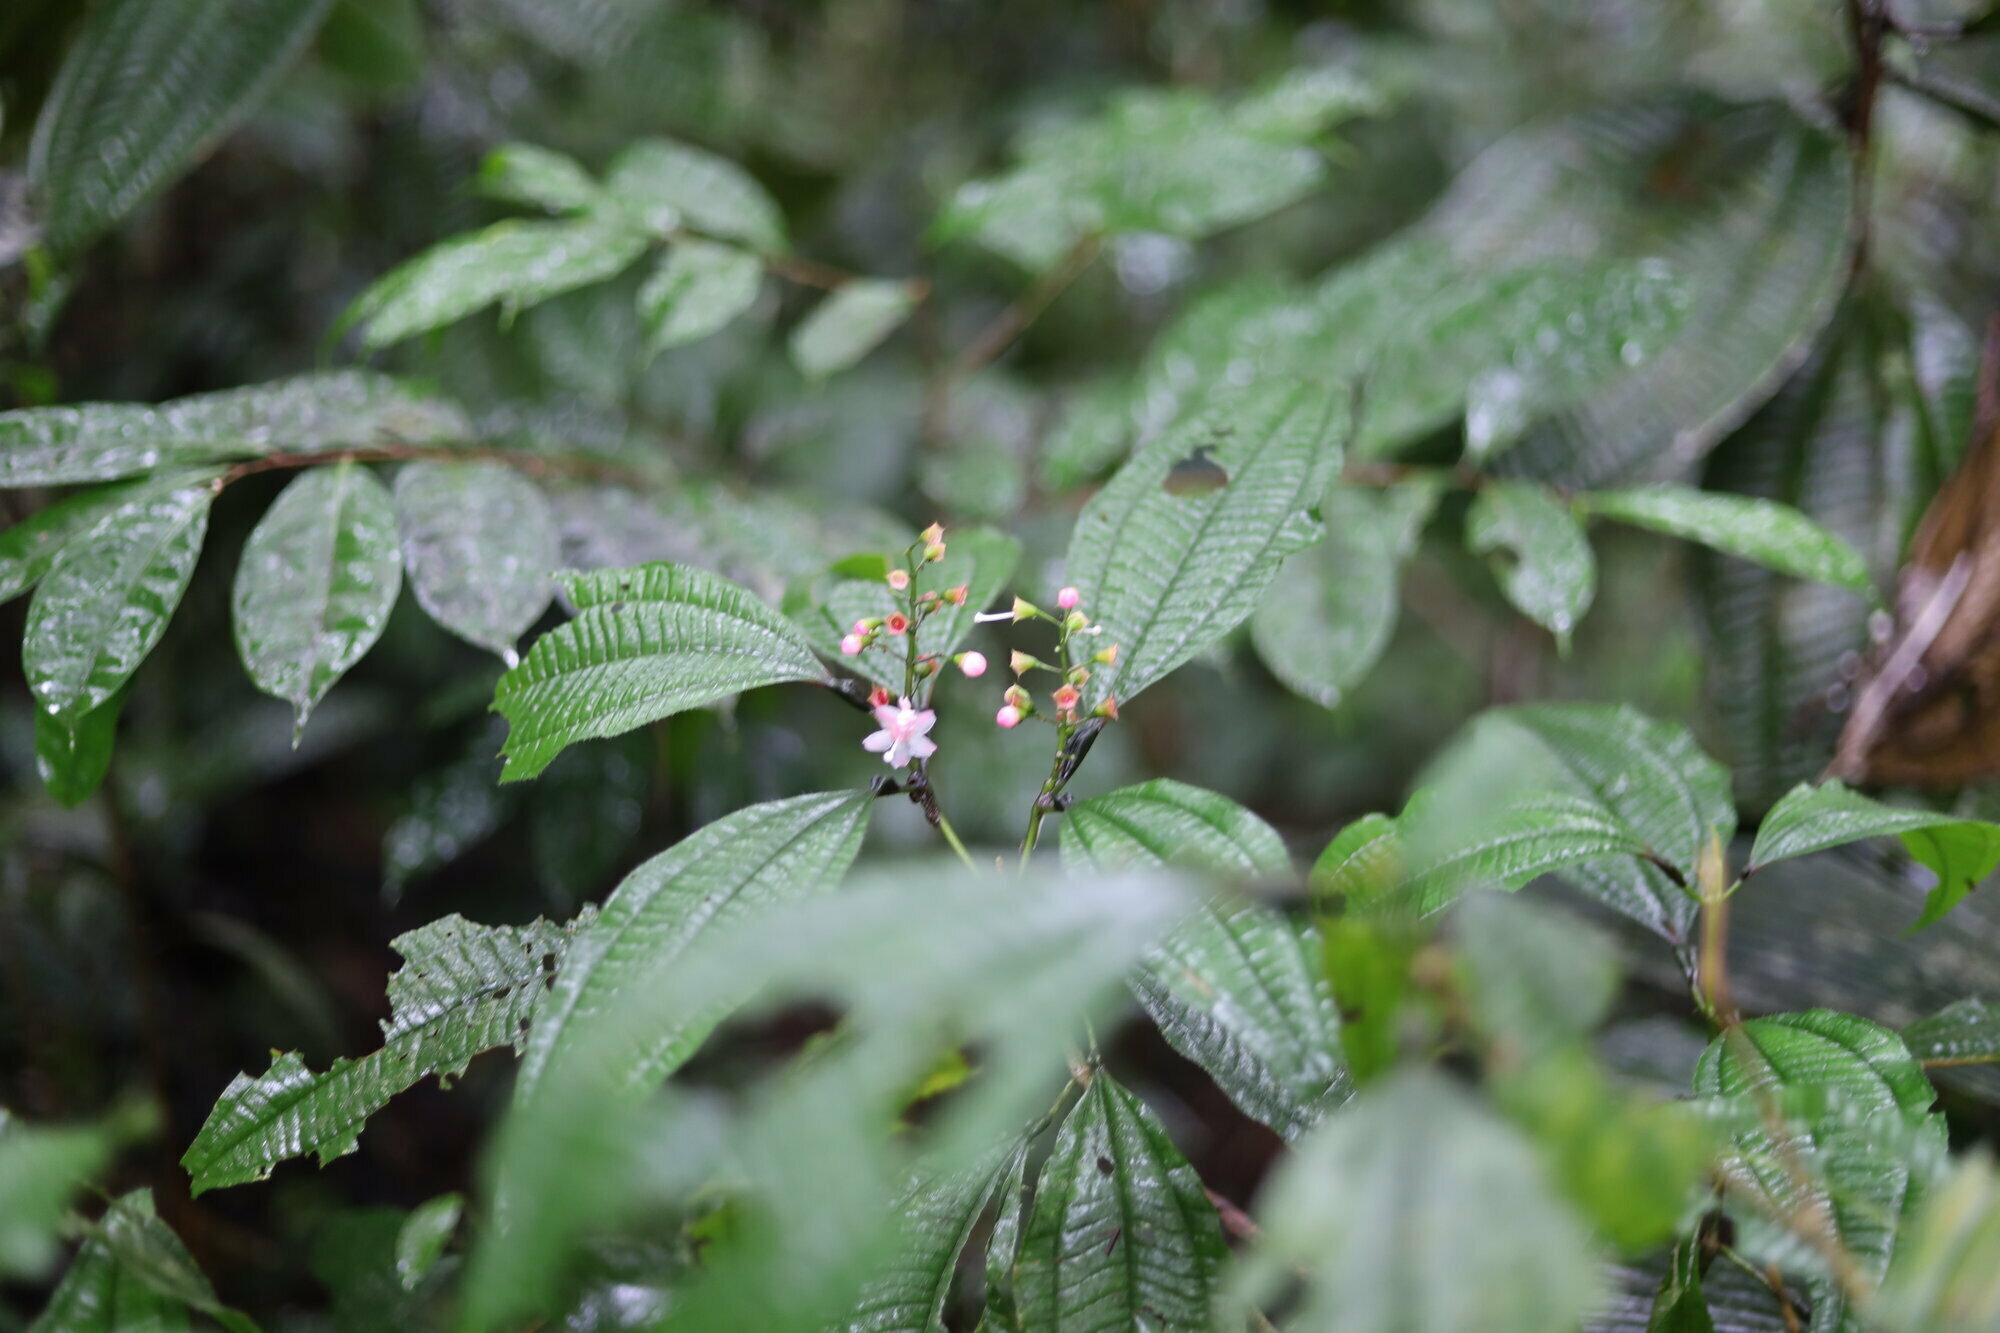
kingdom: Plantae
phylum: Tracheophyta
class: Magnoliopsida
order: Myrtales
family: Melastomataceae
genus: Miconia
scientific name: Miconia bullifera
